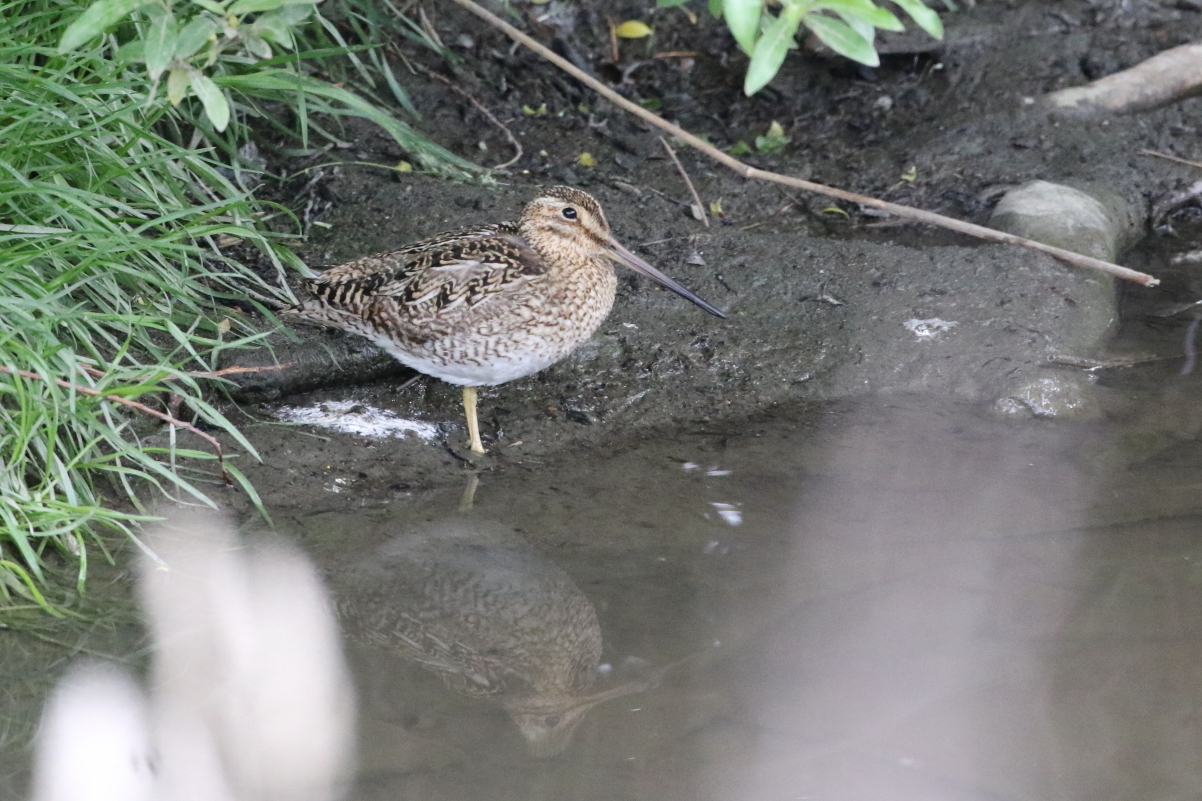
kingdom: Animalia
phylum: Chordata
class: Aves
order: Charadriiformes
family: Scolopacidae
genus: Gallinago
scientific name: Gallinago magellanica
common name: Magellanic snipe
